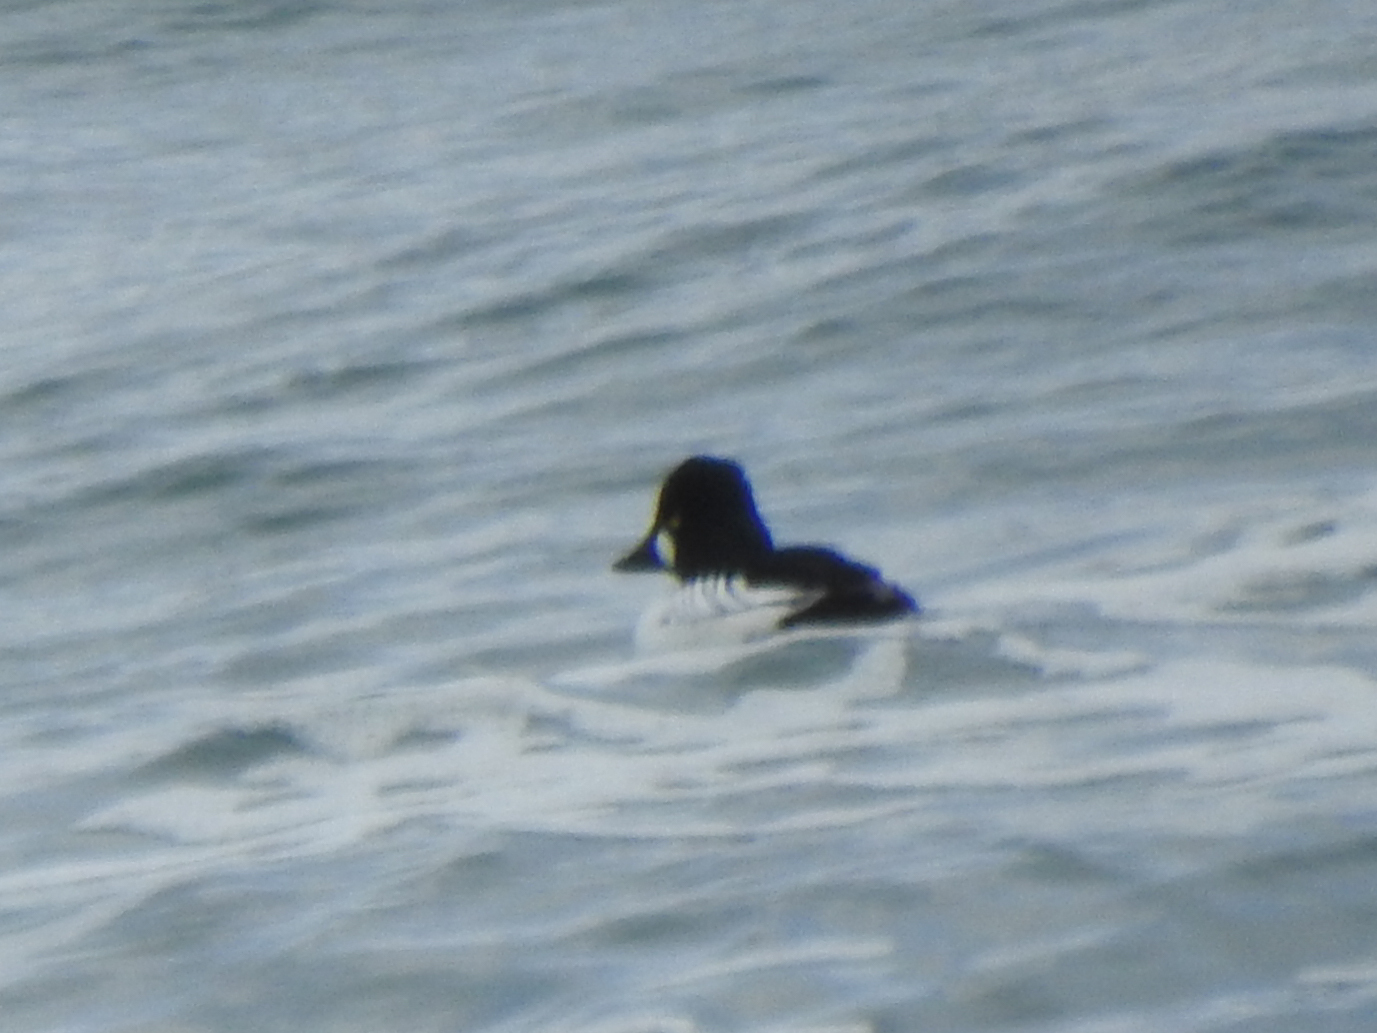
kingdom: Animalia
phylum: Chordata
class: Aves
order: Anseriformes
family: Anatidae
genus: Bucephala
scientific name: Bucephala clangula
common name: Common goldeneye
